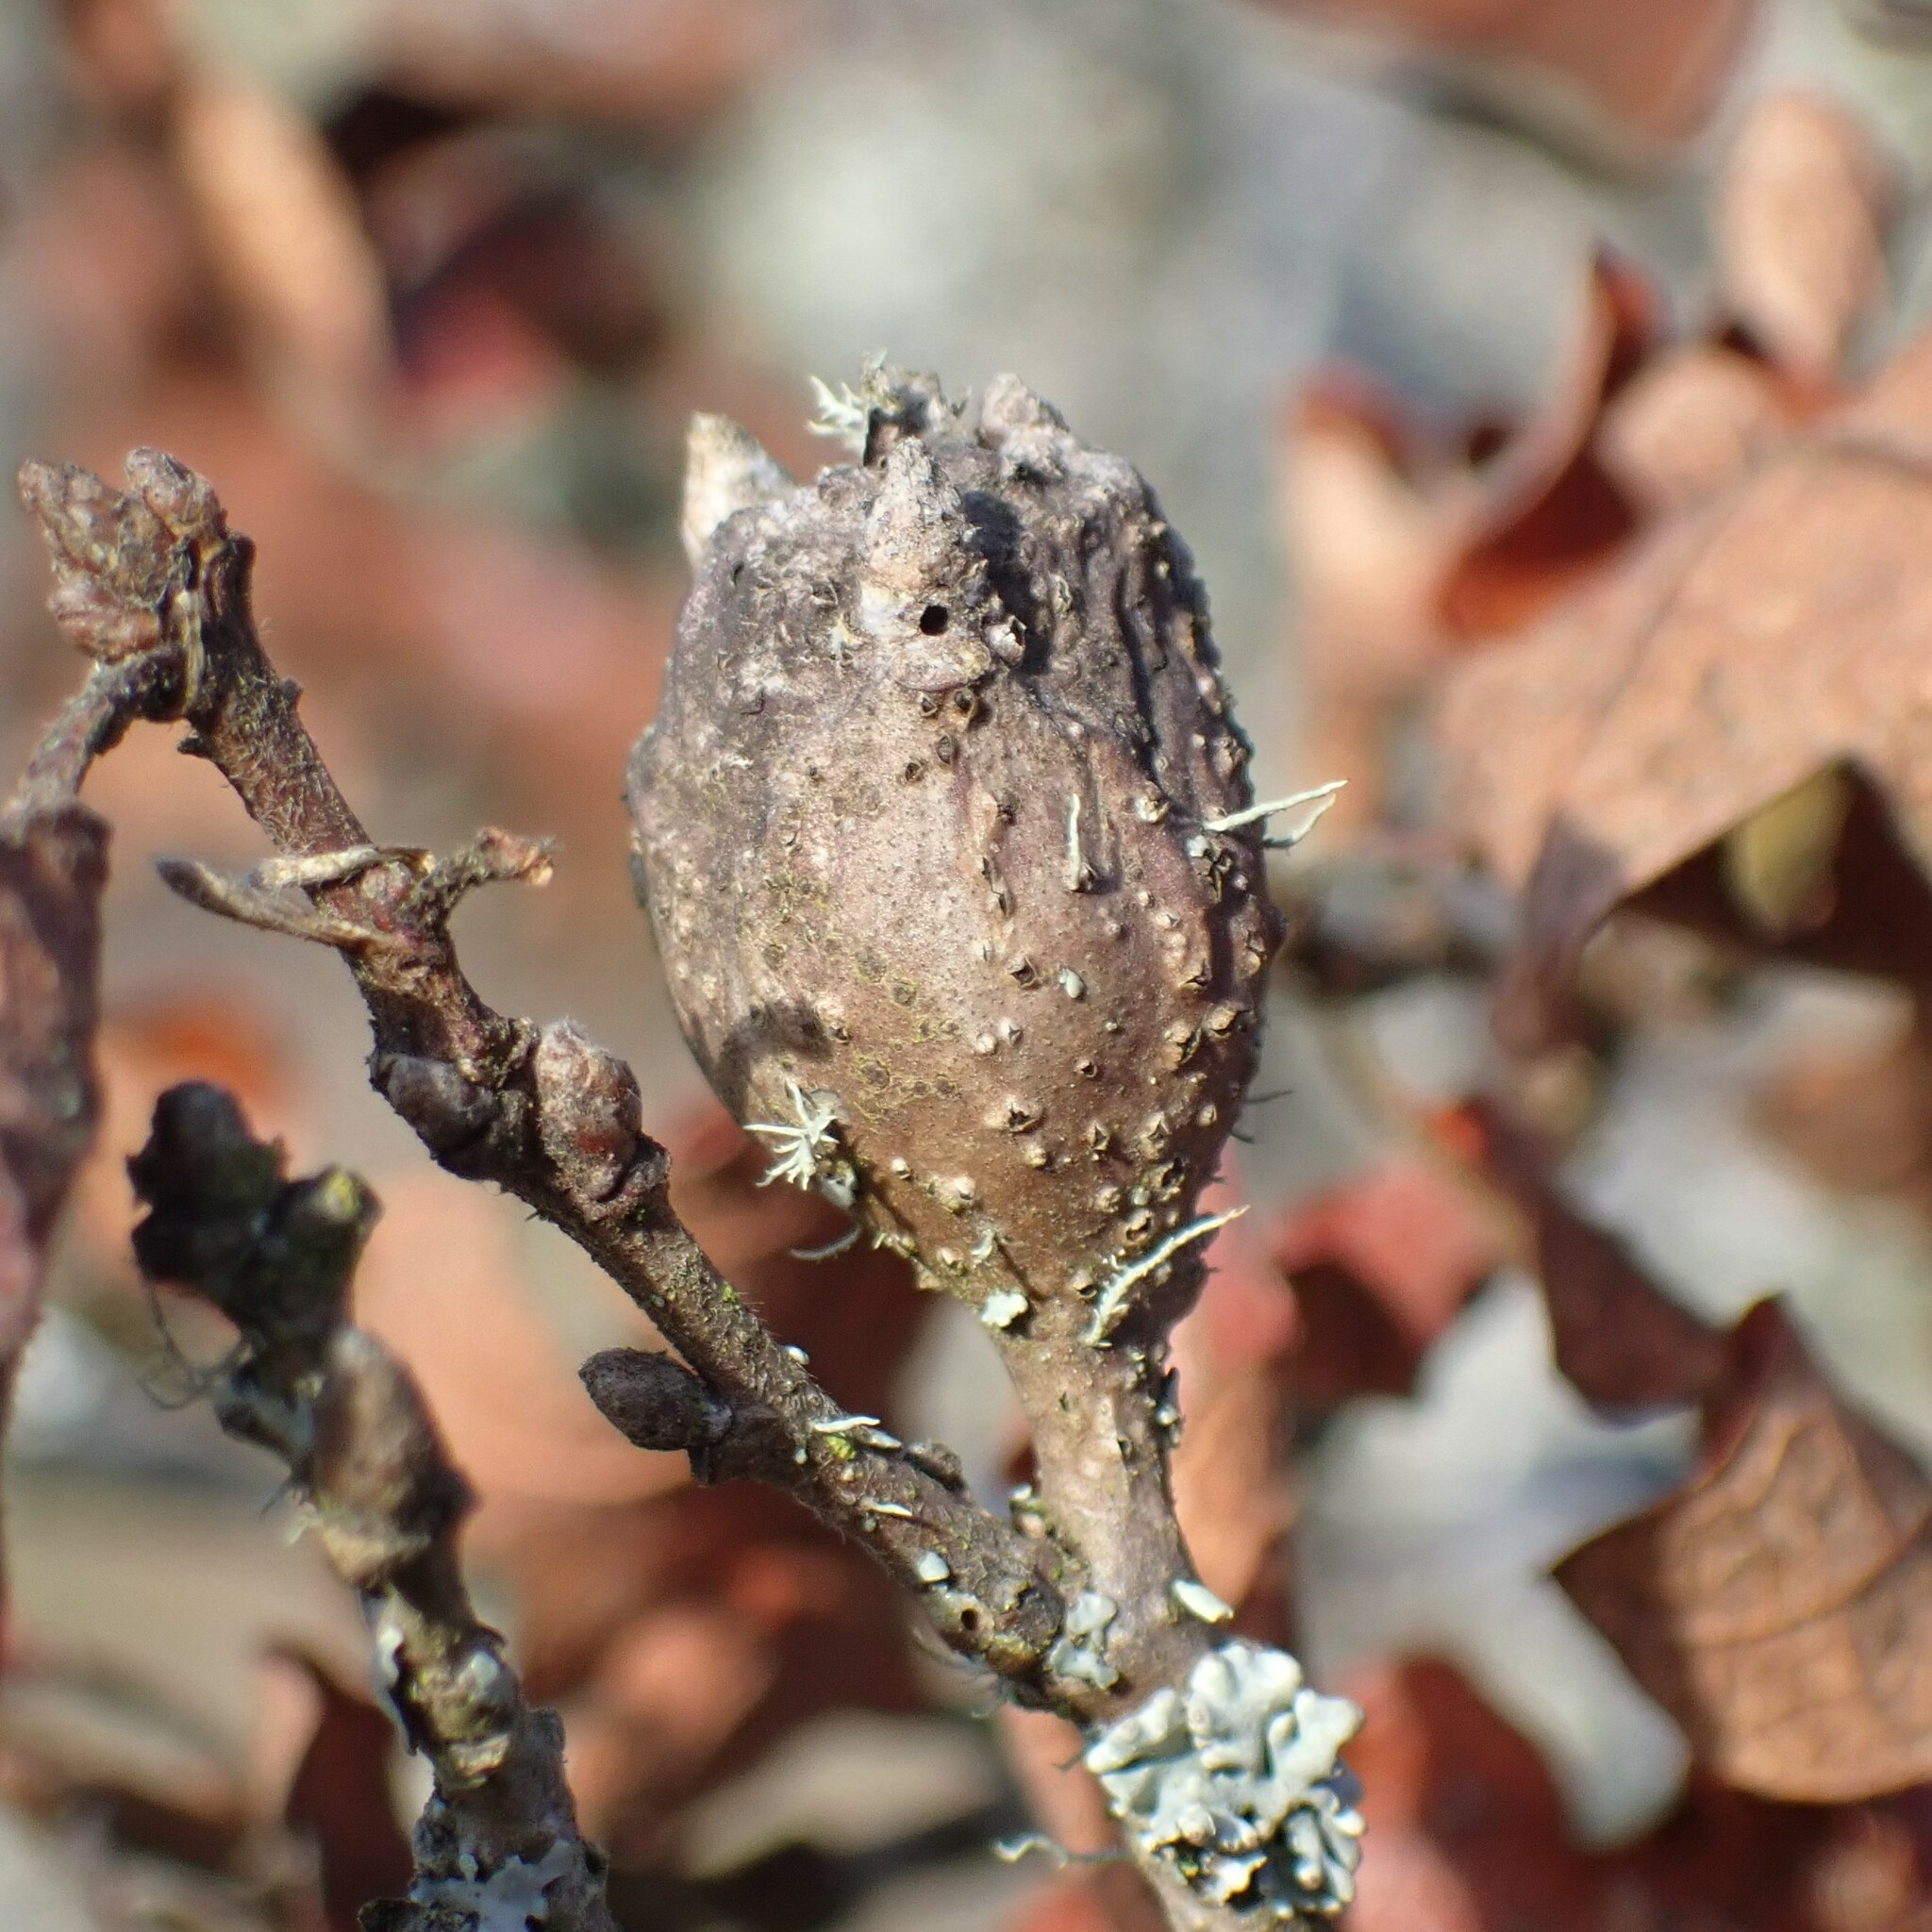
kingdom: Animalia
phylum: Arthropoda
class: Insecta
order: Hymenoptera
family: Cynipidae
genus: Andricus
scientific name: Andricus
